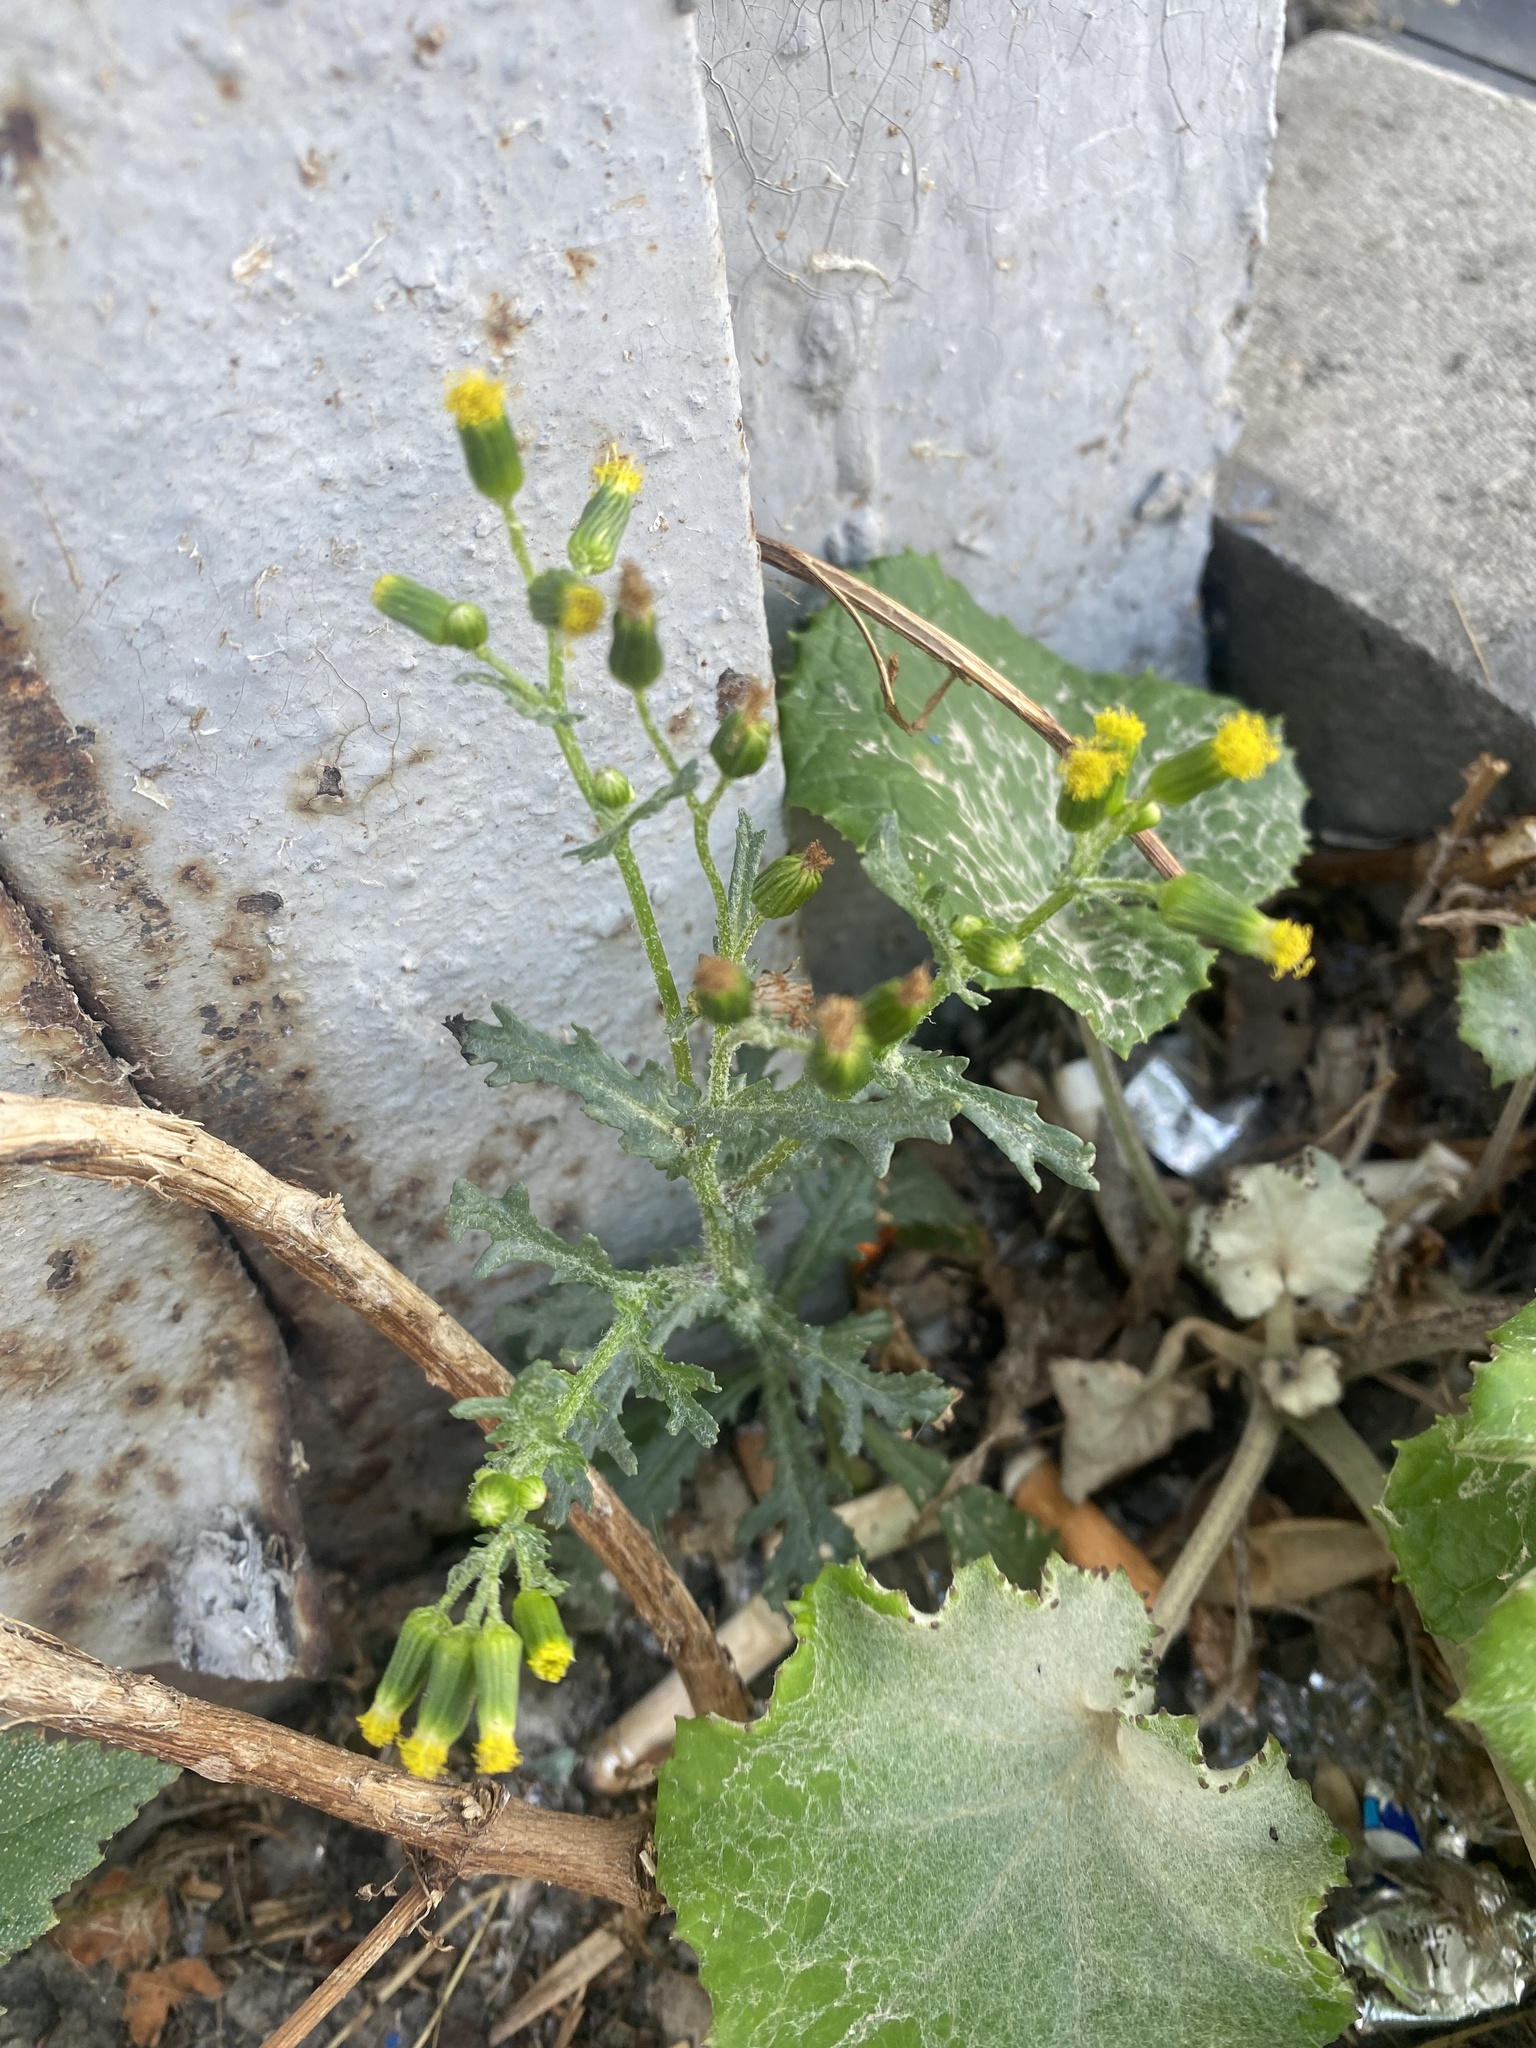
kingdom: Plantae
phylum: Tracheophyta
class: Magnoliopsida
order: Asterales
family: Asteraceae
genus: Senecio
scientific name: Senecio vulgaris
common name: Old-man-in-the-spring
